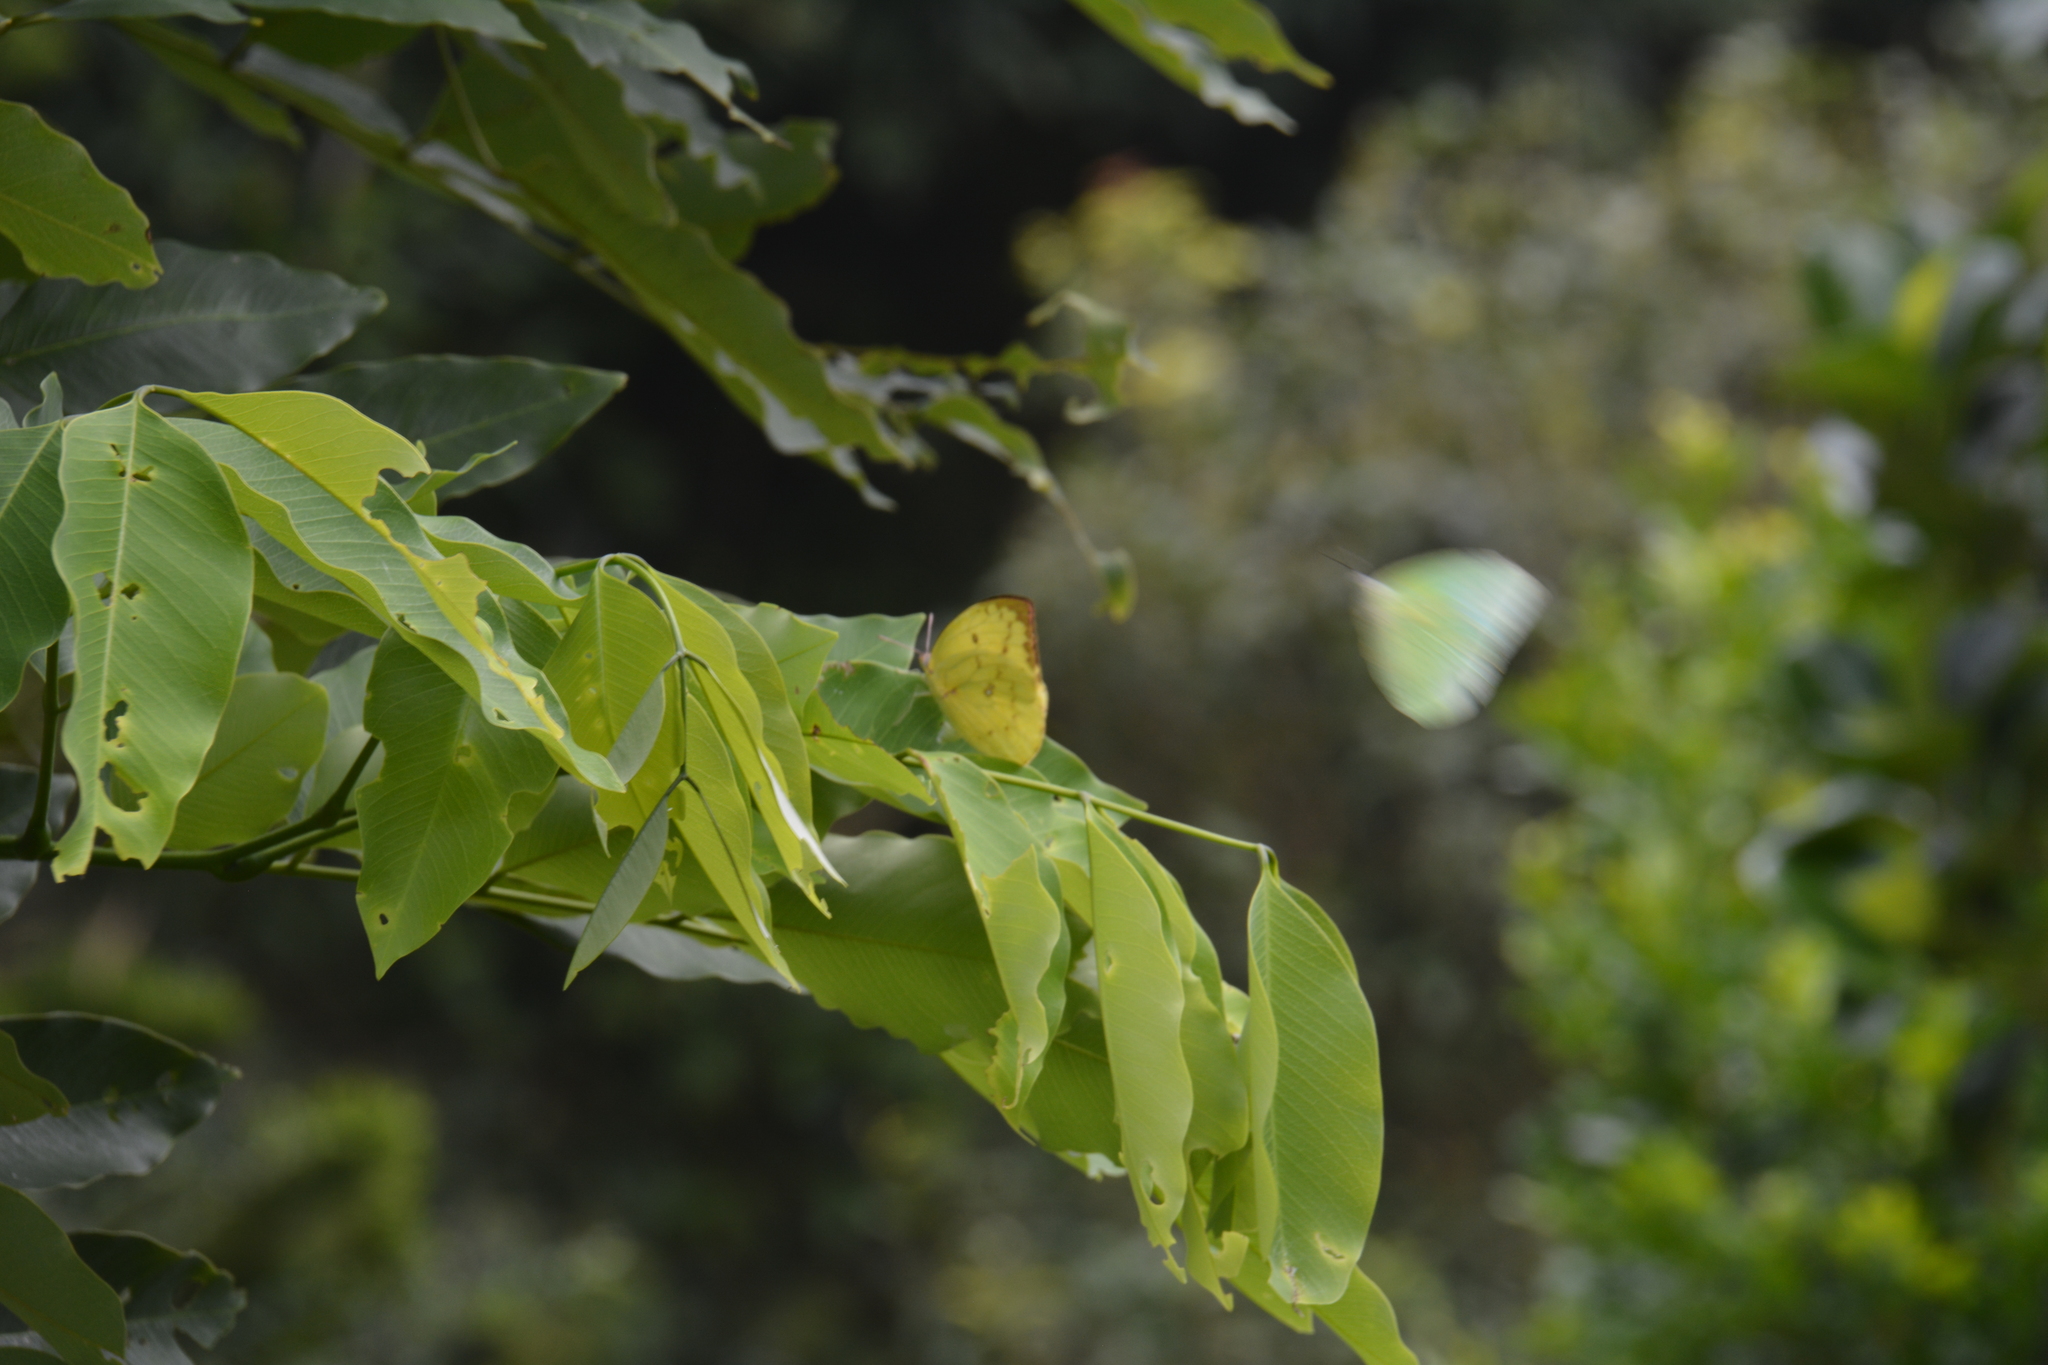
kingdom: Animalia
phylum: Arthropoda
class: Insecta
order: Lepidoptera
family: Pieridae
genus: Catopsilia
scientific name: Catopsilia pomona
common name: Common emigrant
